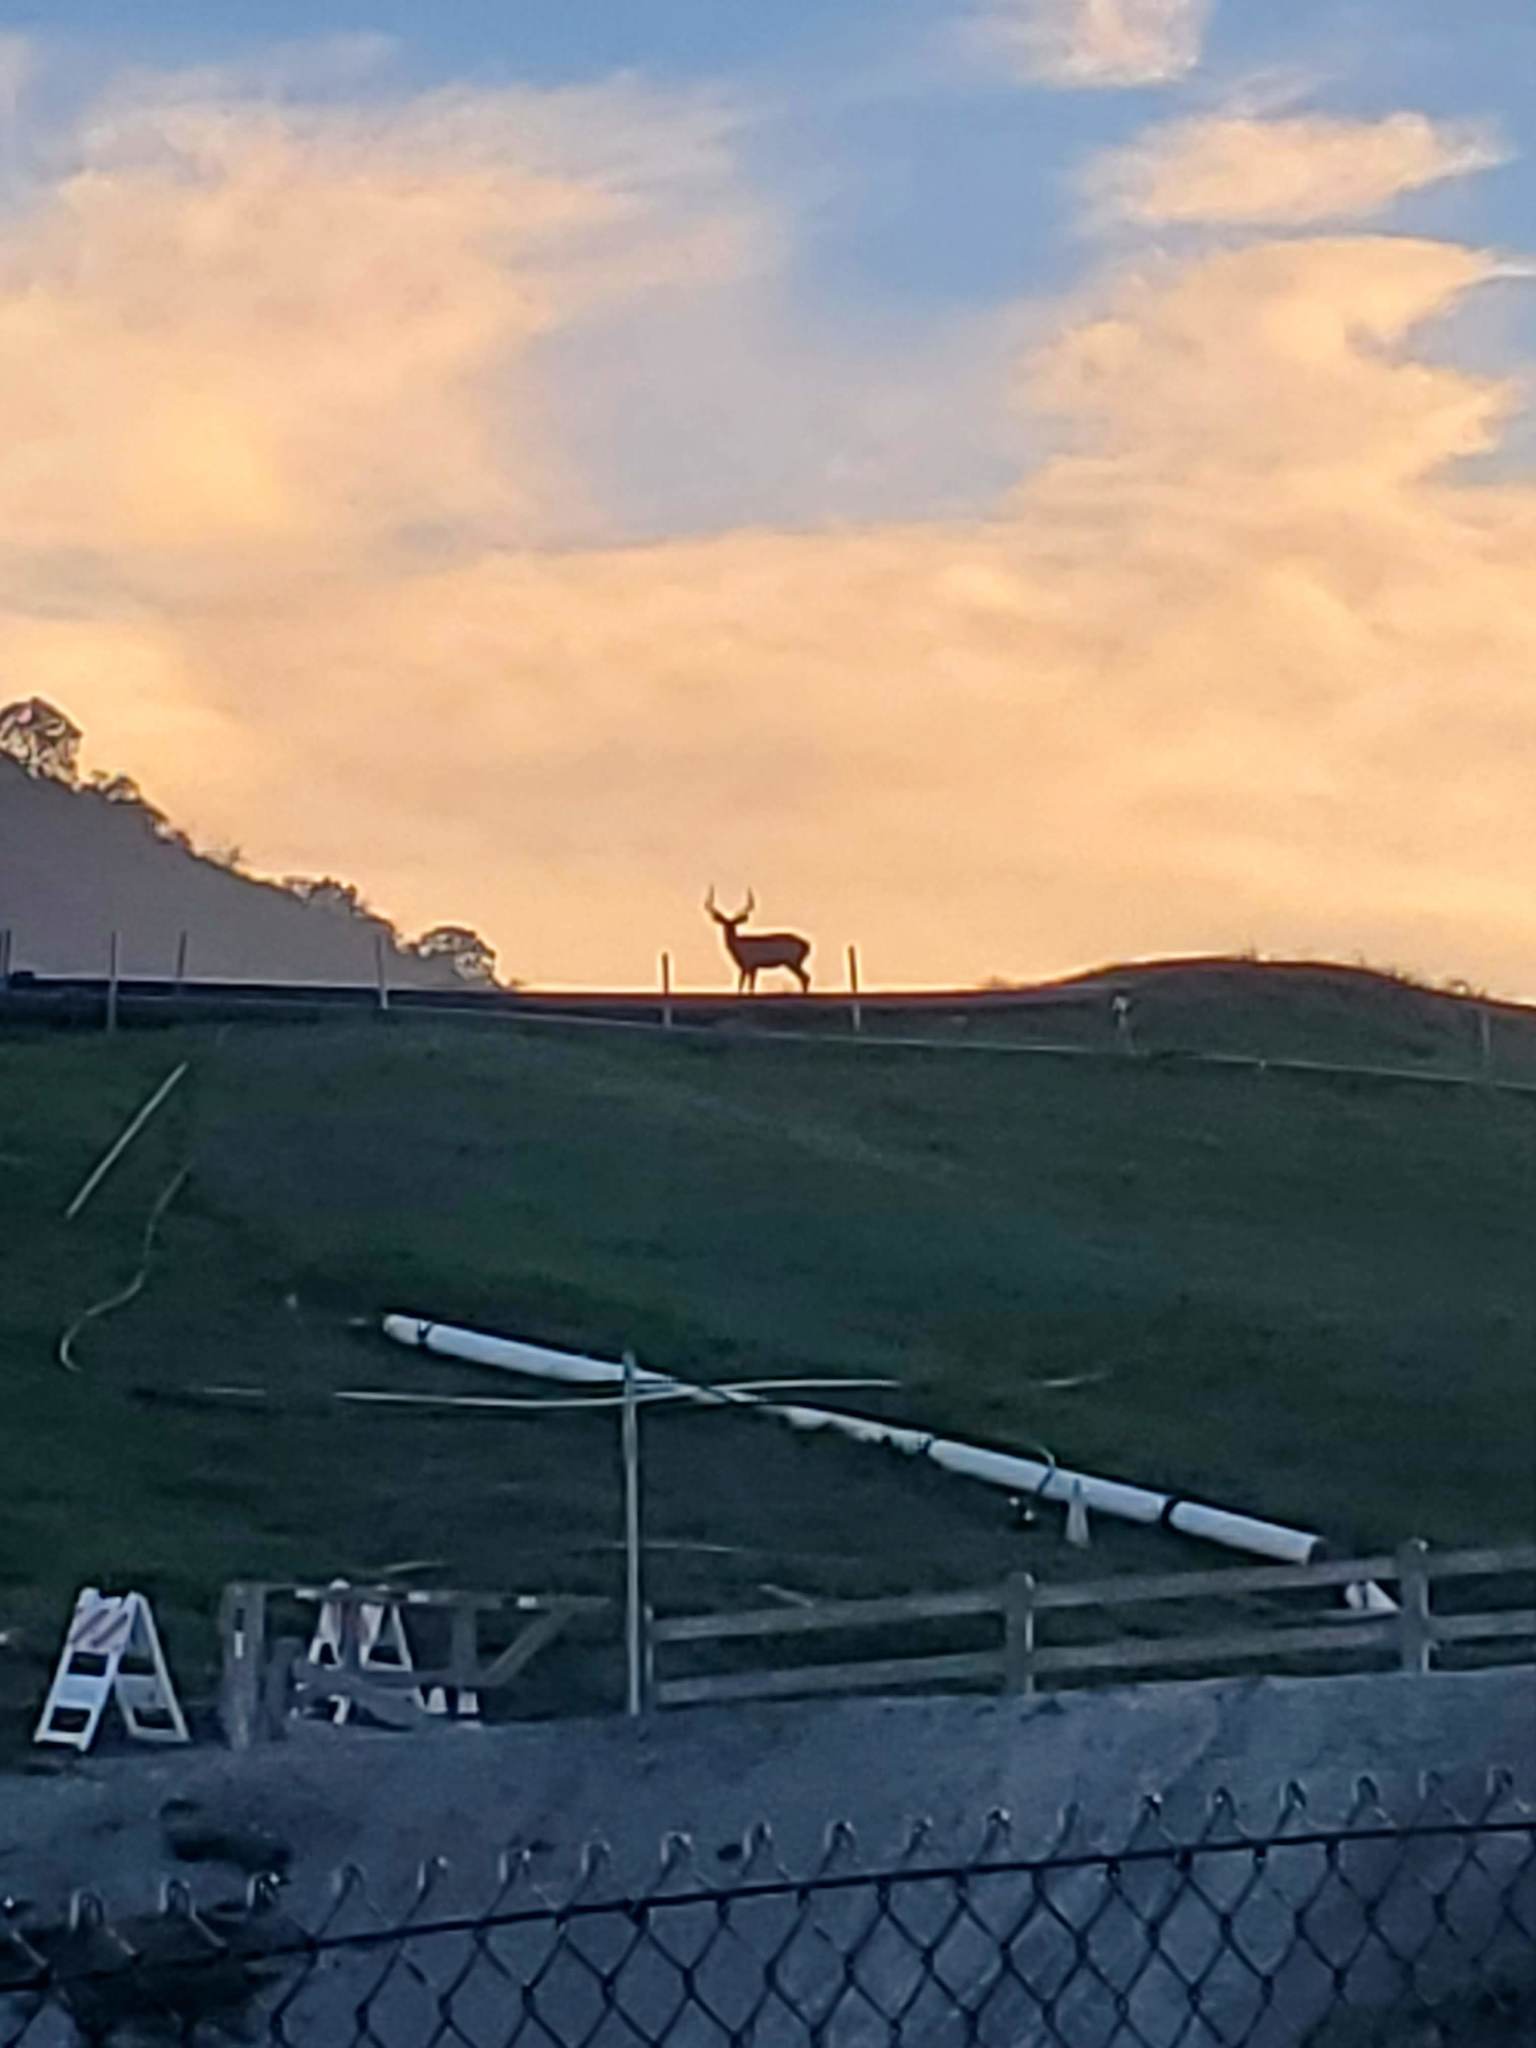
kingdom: Animalia
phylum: Chordata
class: Mammalia
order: Artiodactyla
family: Cervidae
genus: Odocoileus
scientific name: Odocoileus hemionus
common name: Mule deer
